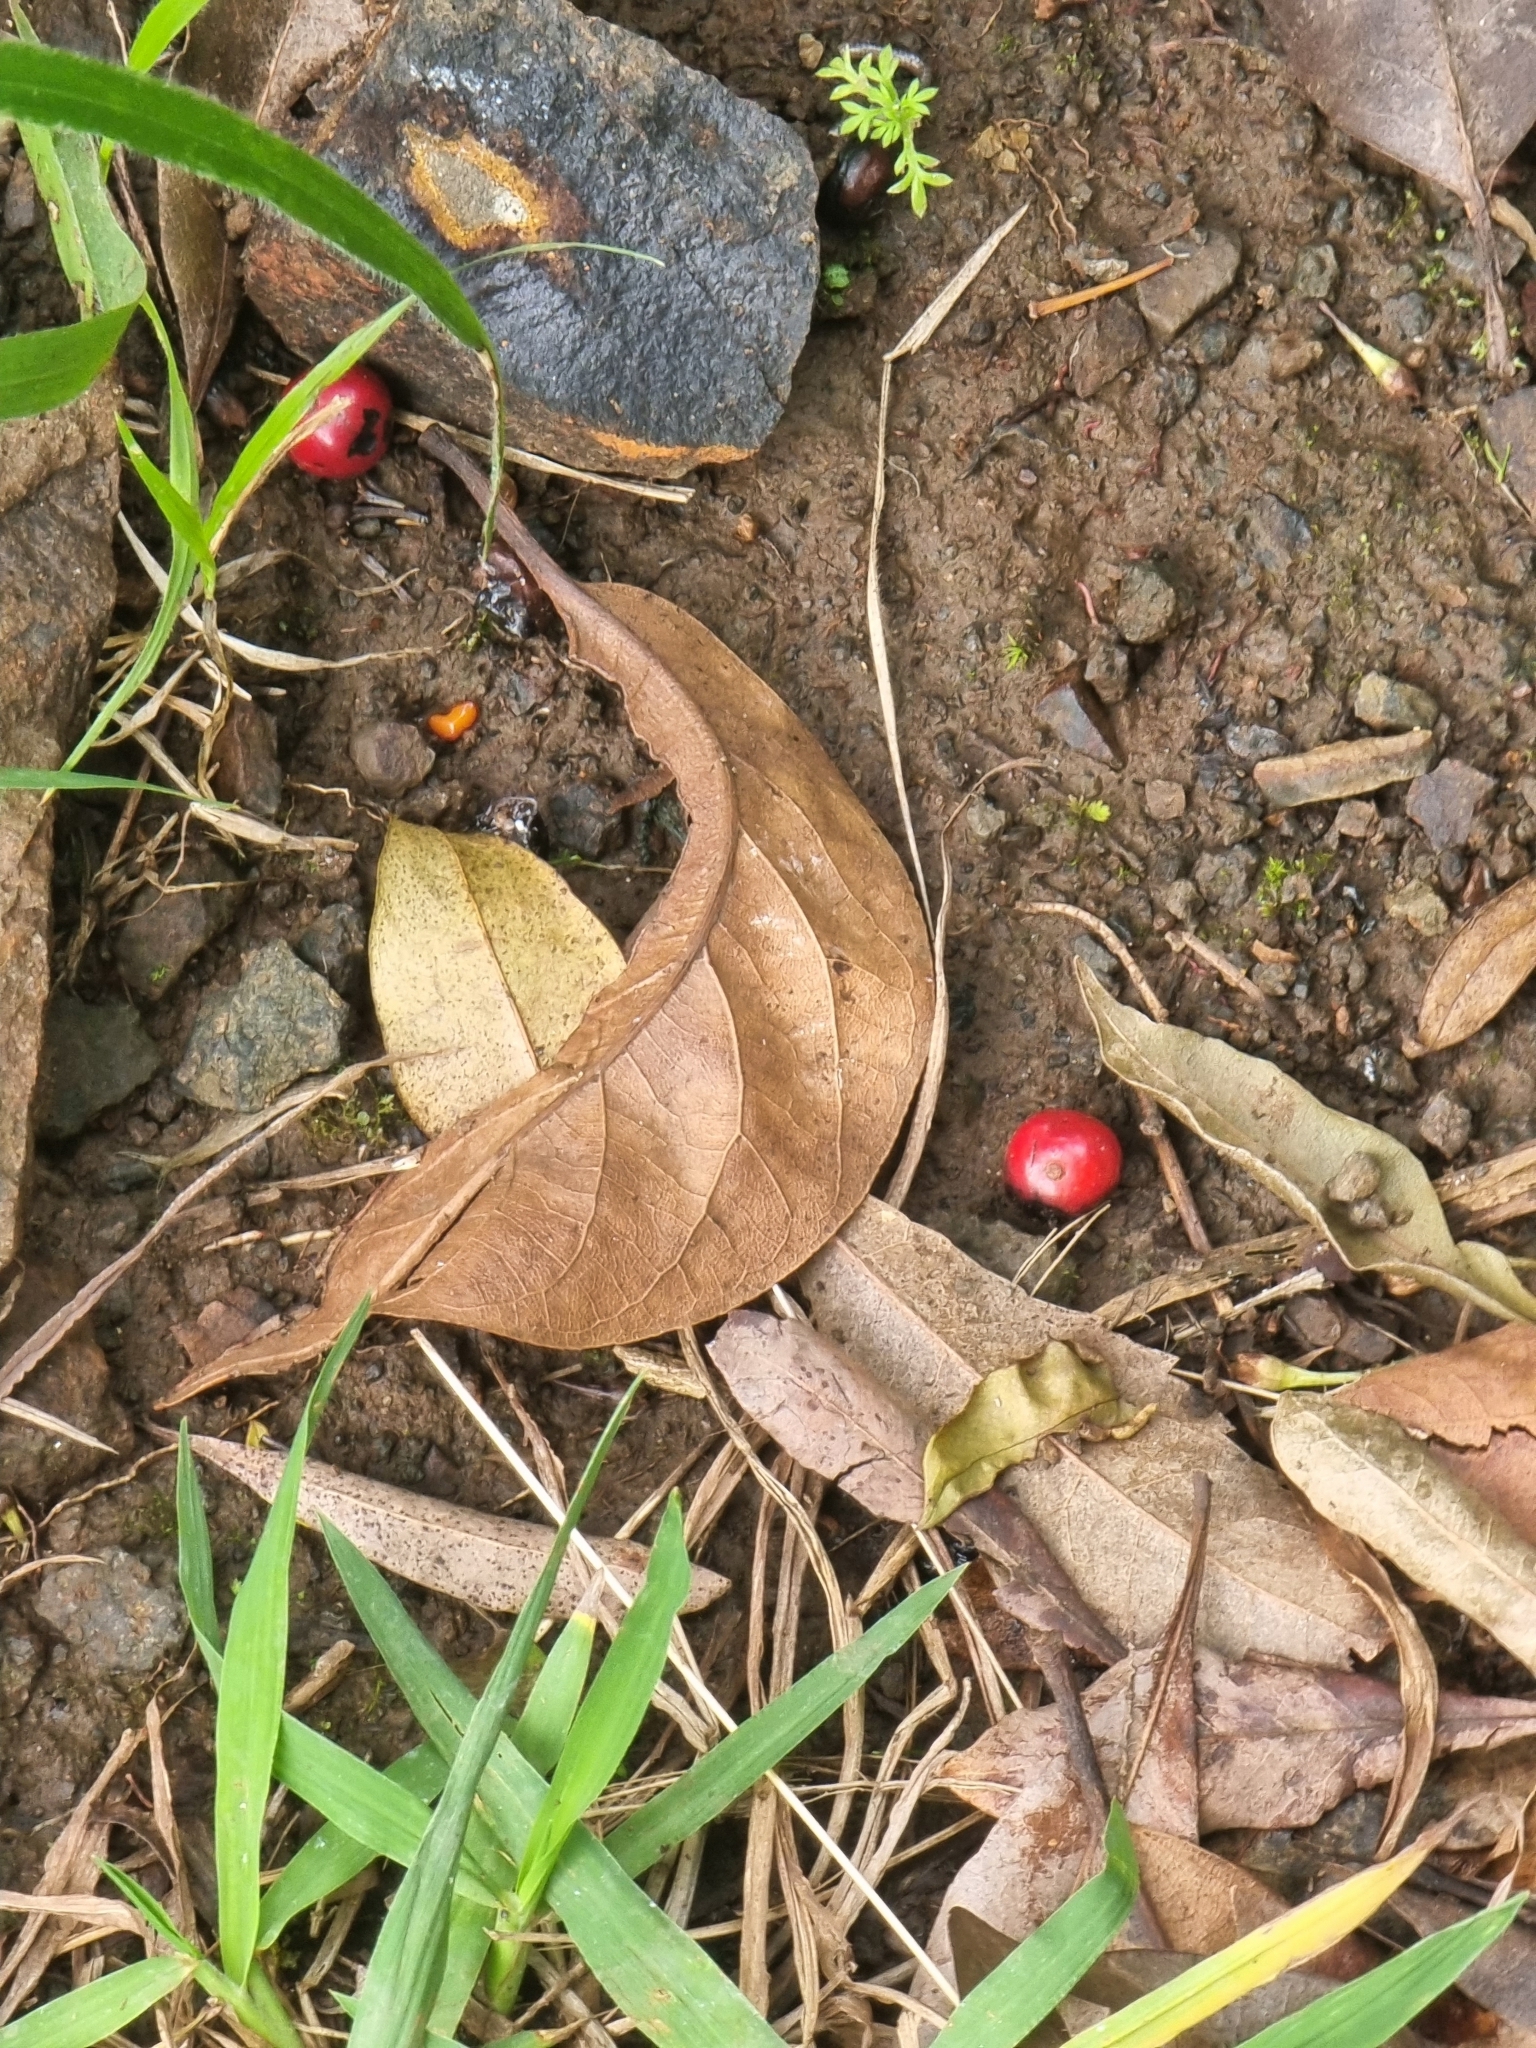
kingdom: Plantae
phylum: Tracheophyta
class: Magnoliopsida
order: Aquifoliales
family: Aquifoliaceae
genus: Ilex
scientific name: Ilex canariensis
